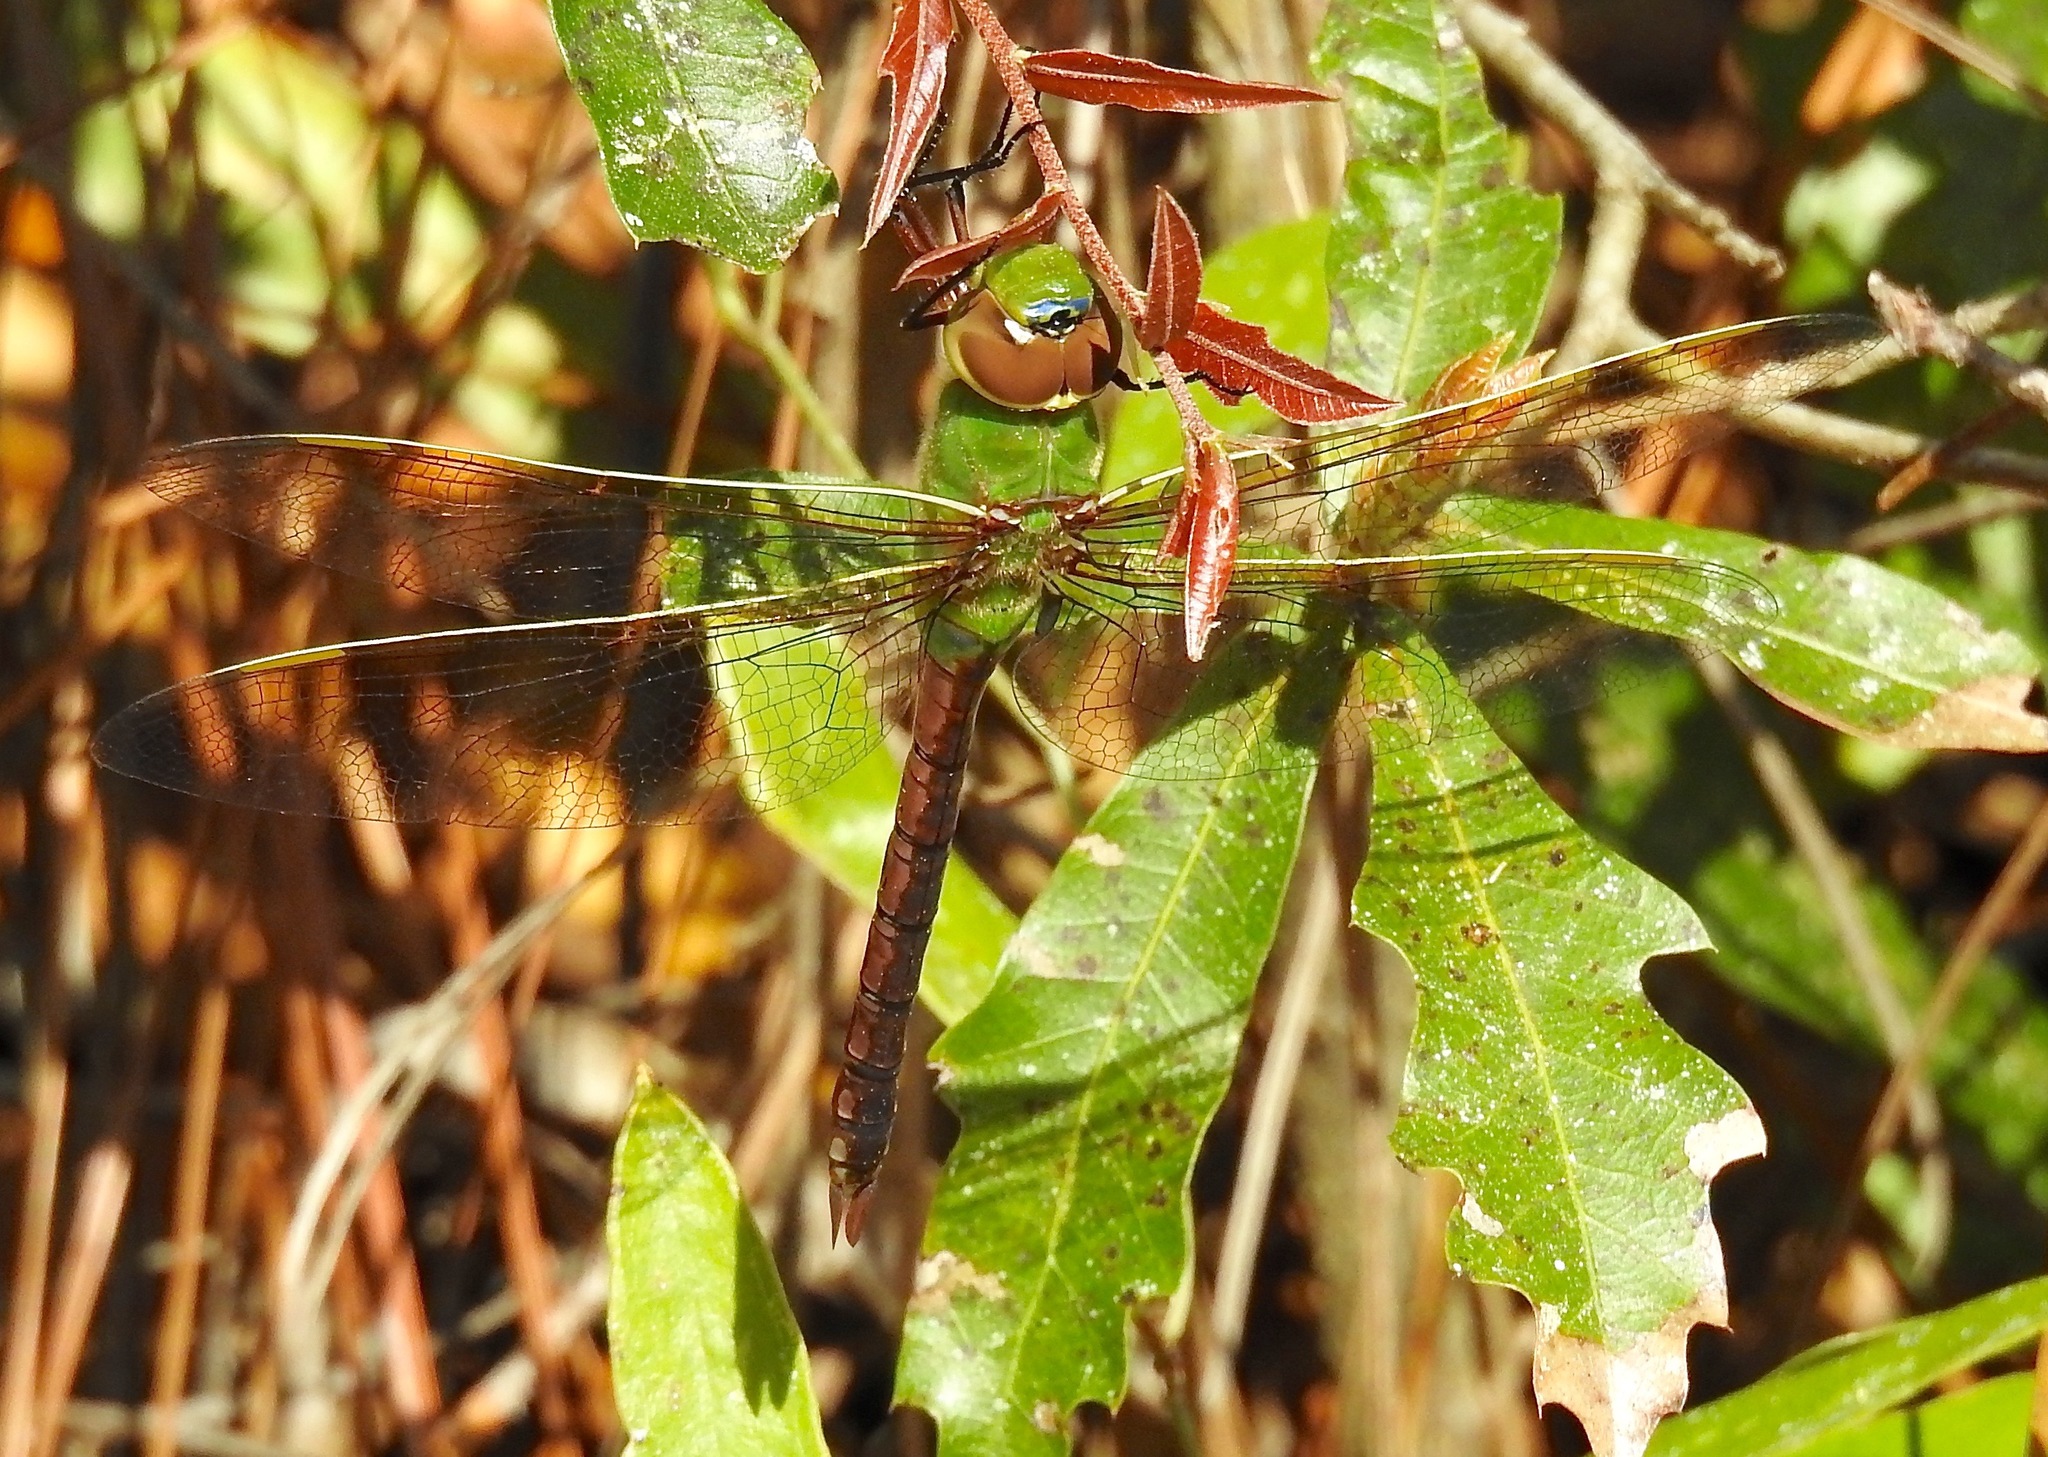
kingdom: Animalia
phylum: Arthropoda
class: Insecta
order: Odonata
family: Aeshnidae
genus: Anax
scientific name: Anax junius
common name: Common green darner
